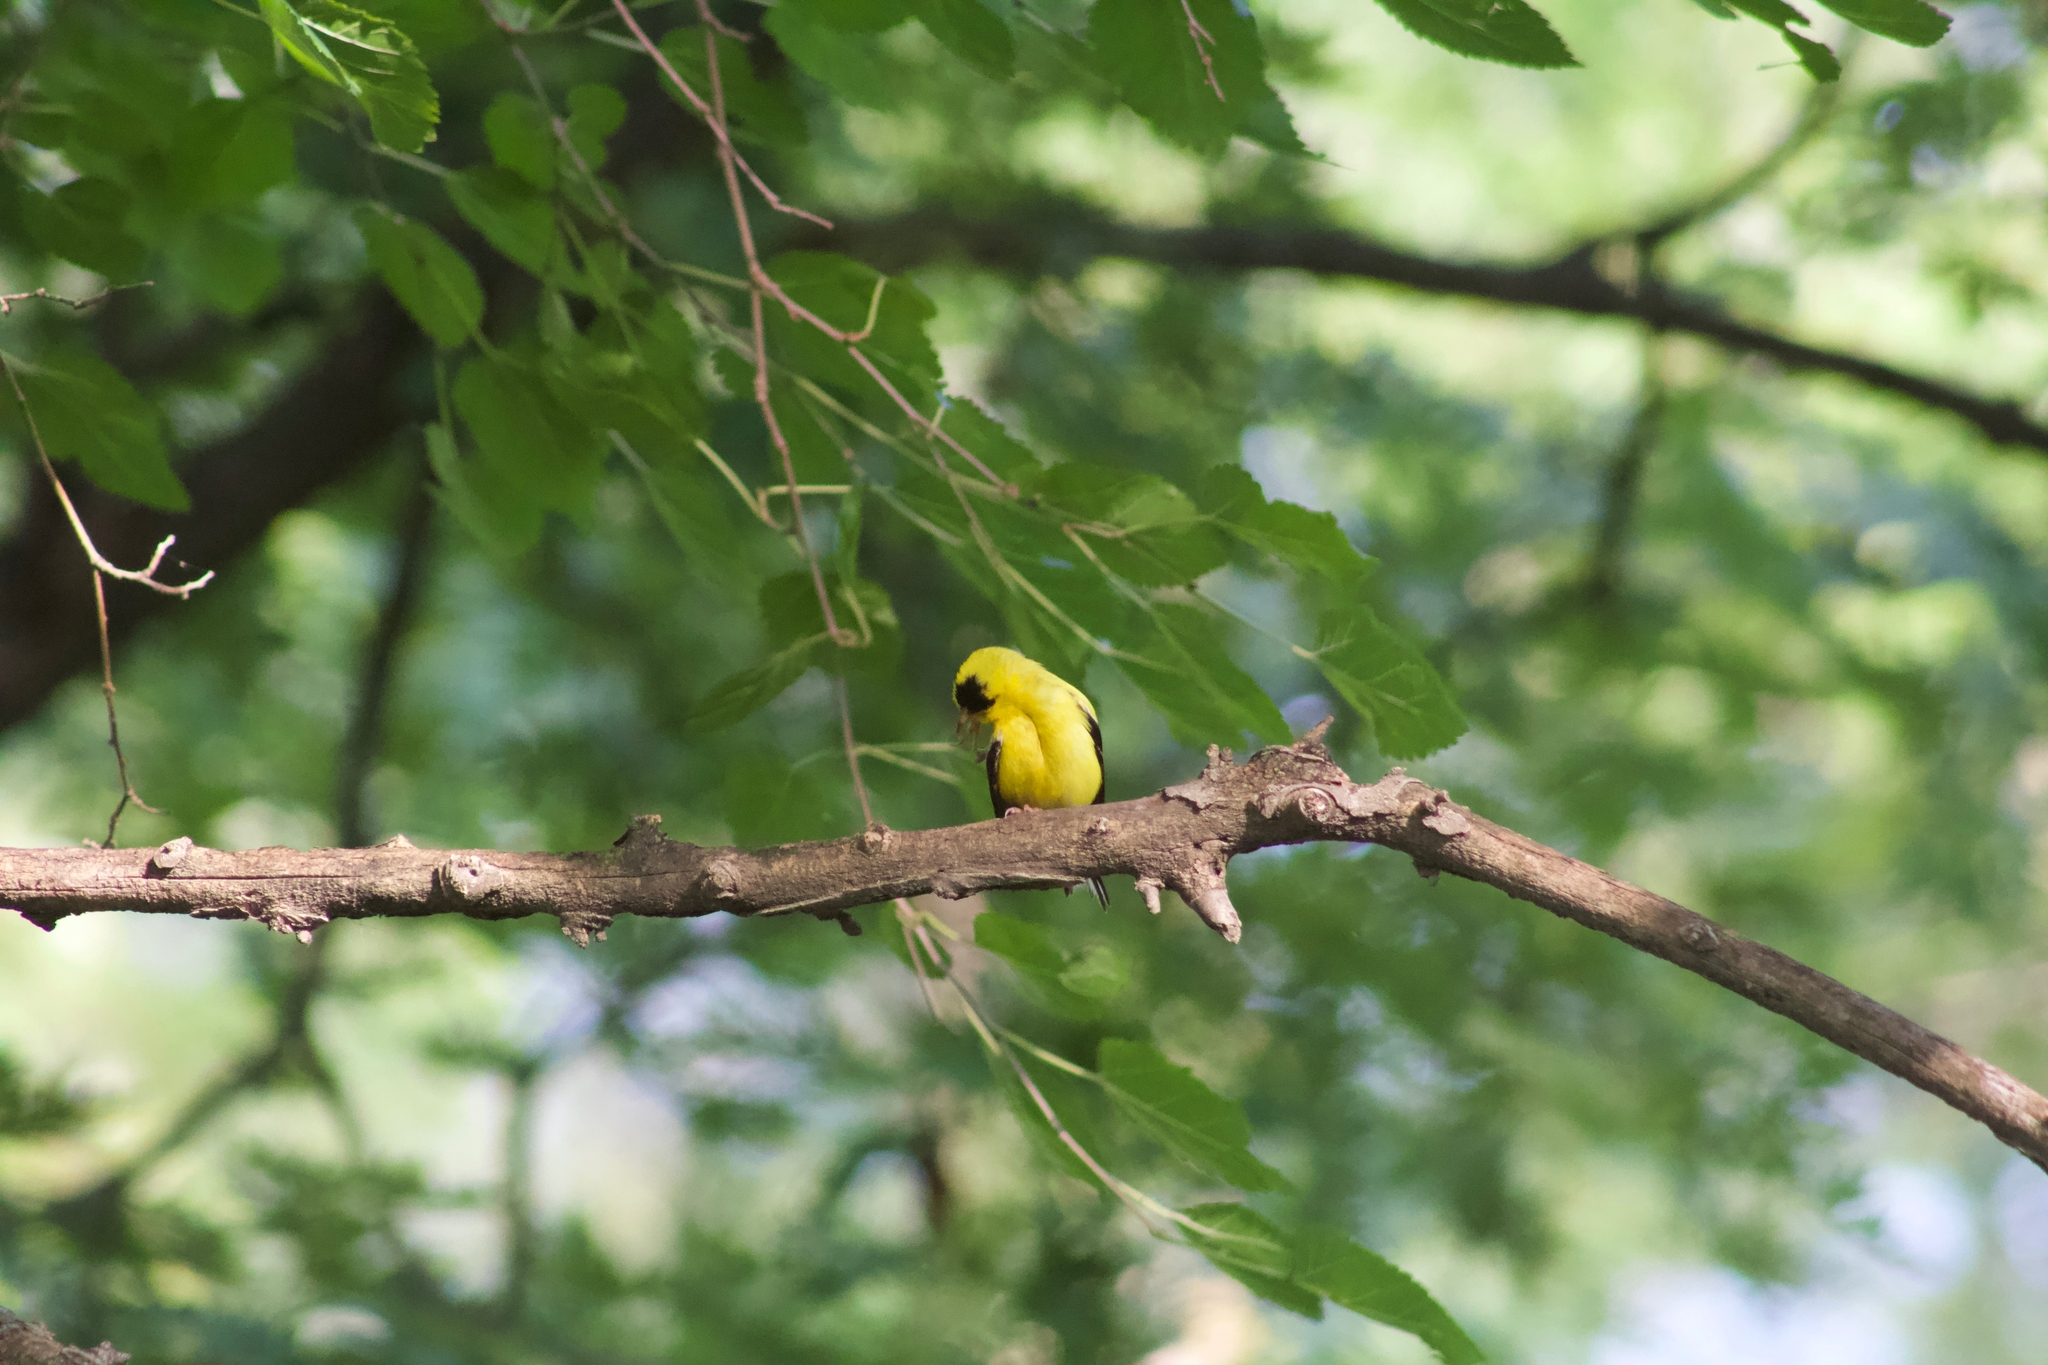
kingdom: Animalia
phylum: Chordata
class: Aves
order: Passeriformes
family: Fringillidae
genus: Spinus
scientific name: Spinus tristis
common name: American goldfinch
